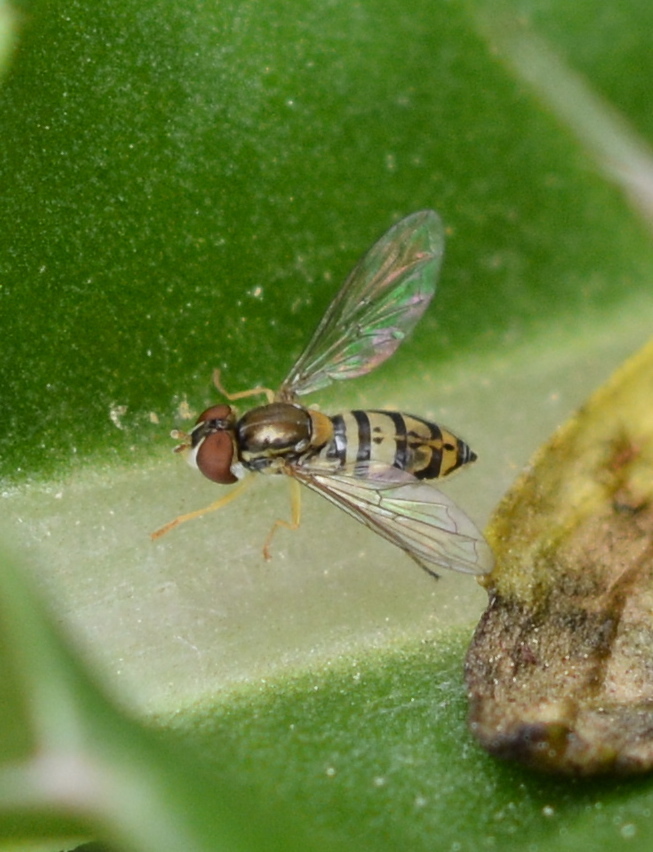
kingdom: Animalia
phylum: Arthropoda
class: Insecta
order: Diptera
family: Syrphidae
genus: Toxomerus
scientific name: Toxomerus marginatus
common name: Syrphid fly
